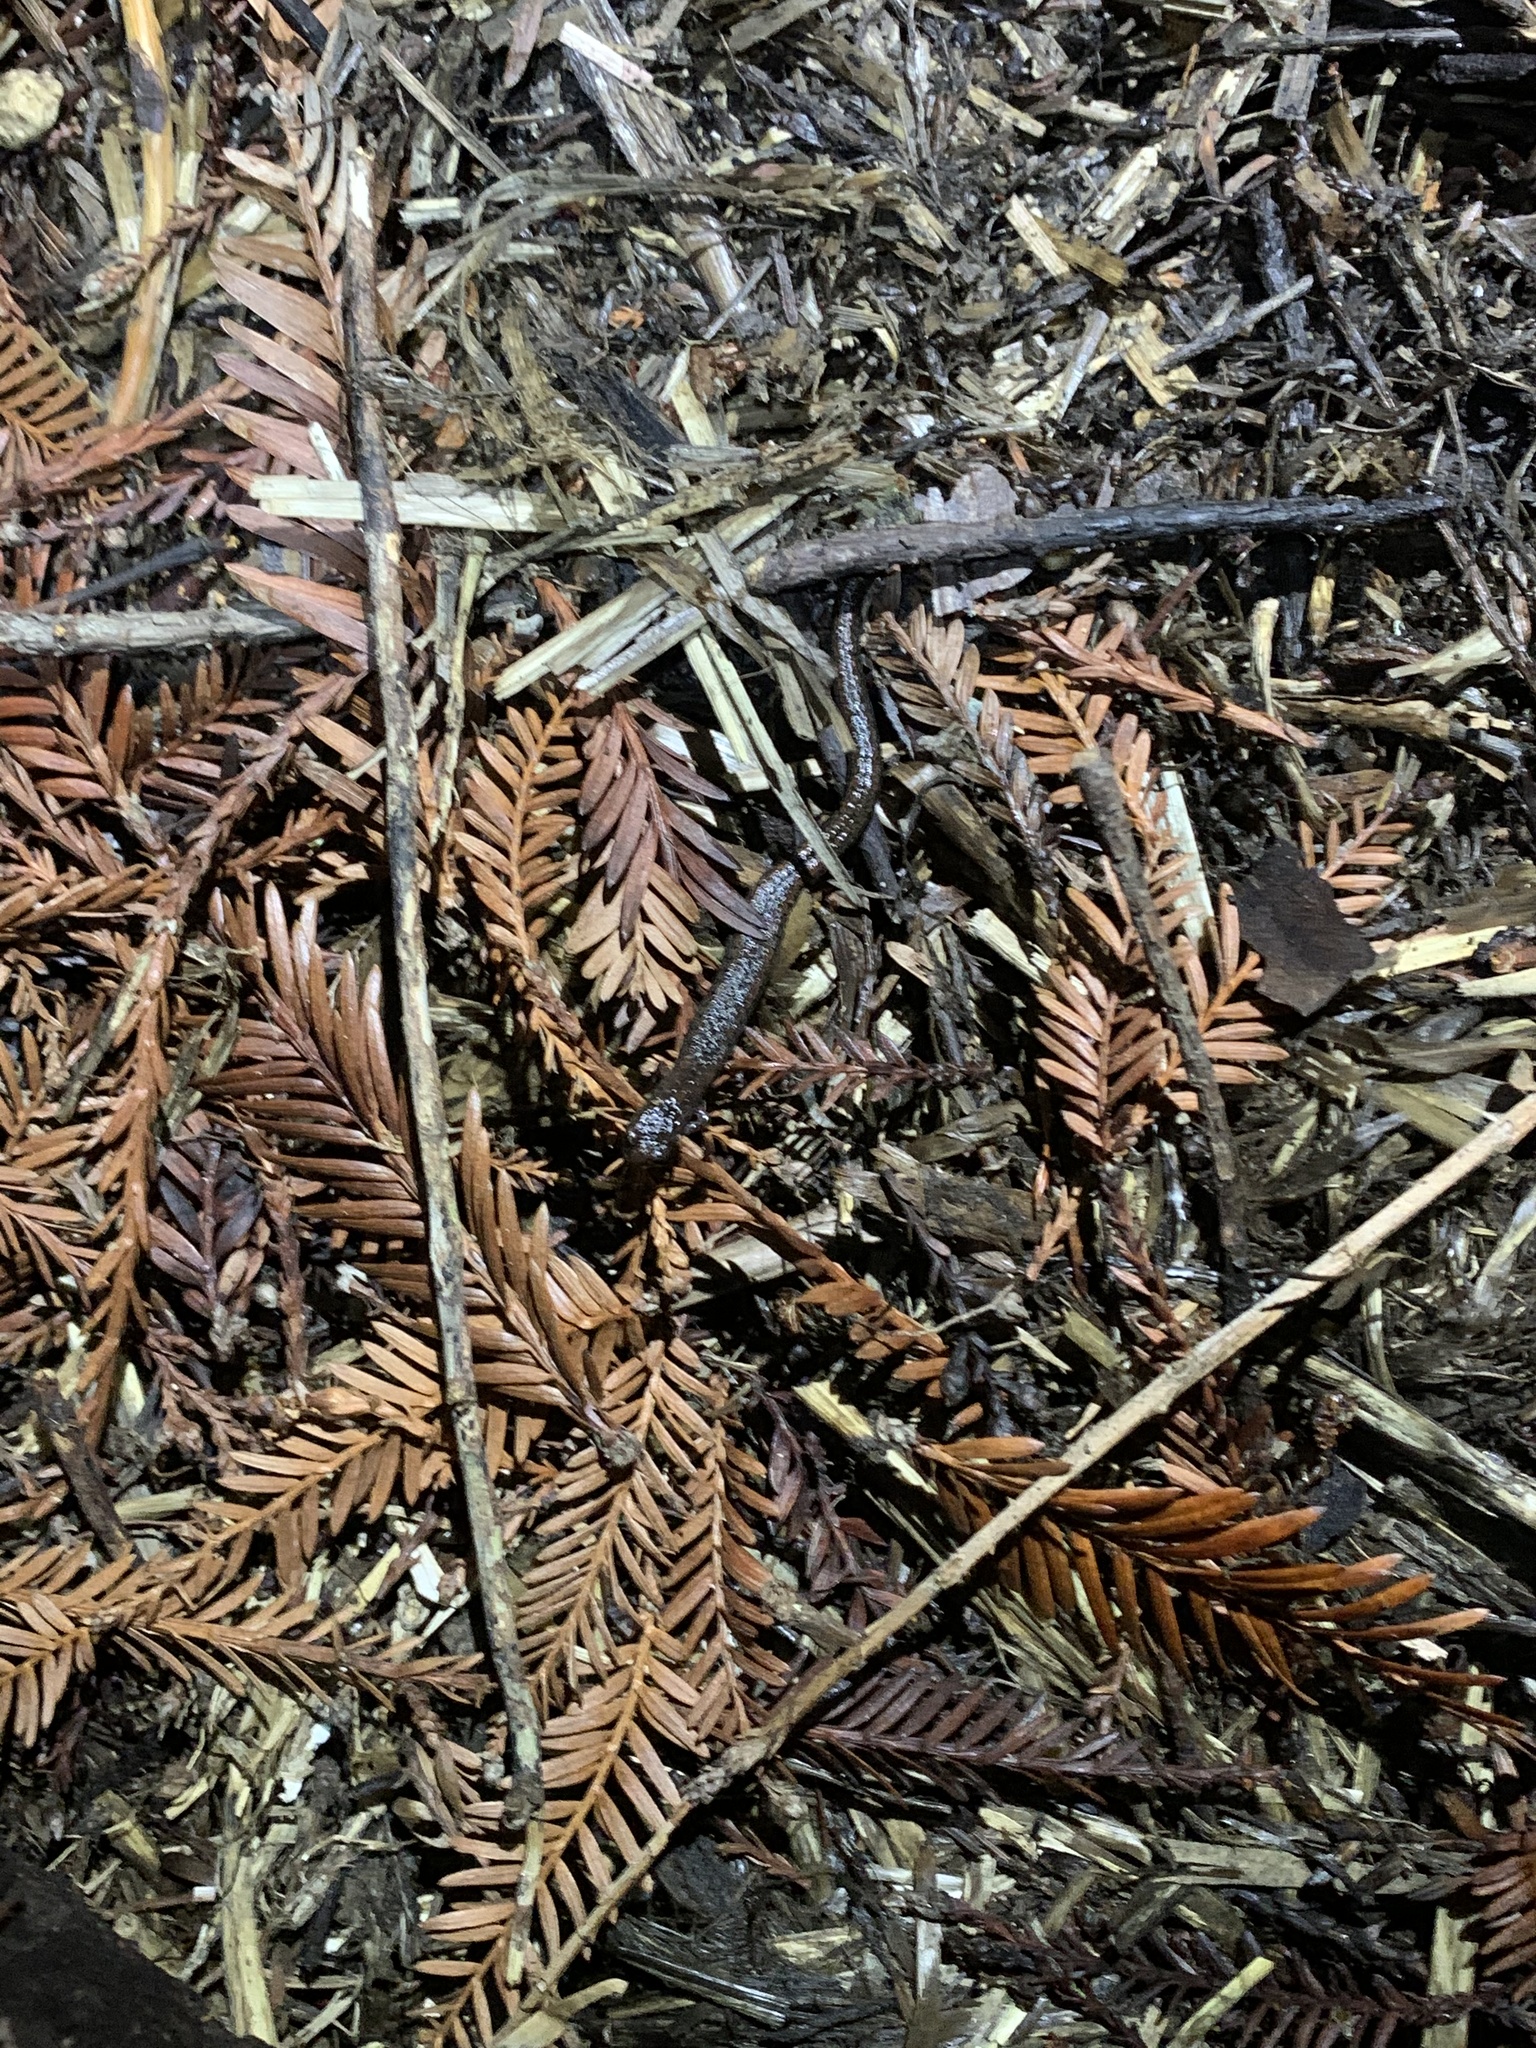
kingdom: Animalia
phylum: Chordata
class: Amphibia
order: Caudata
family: Plethodontidae
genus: Batrachoseps
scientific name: Batrachoseps attenuatus
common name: California slender salamander
